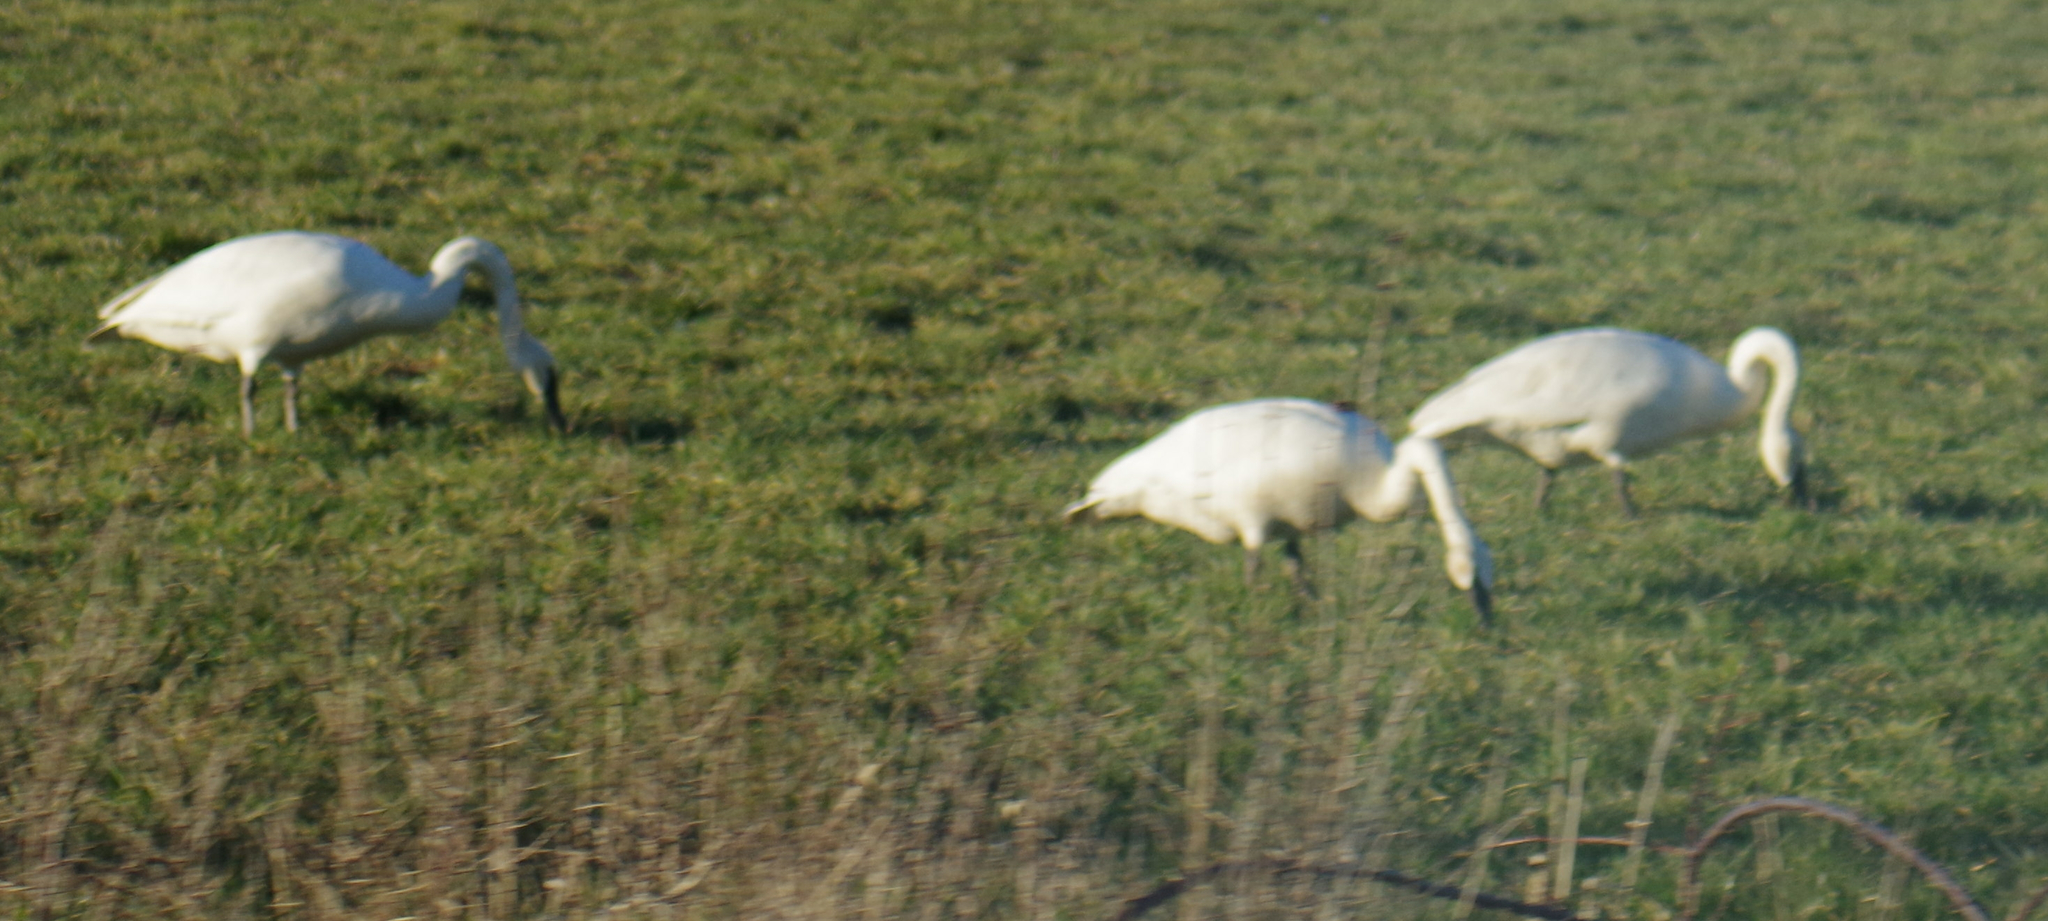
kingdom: Animalia
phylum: Chordata
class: Aves
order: Anseriformes
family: Anatidae
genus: Cygnus
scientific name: Cygnus columbianus
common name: Tundra swan
